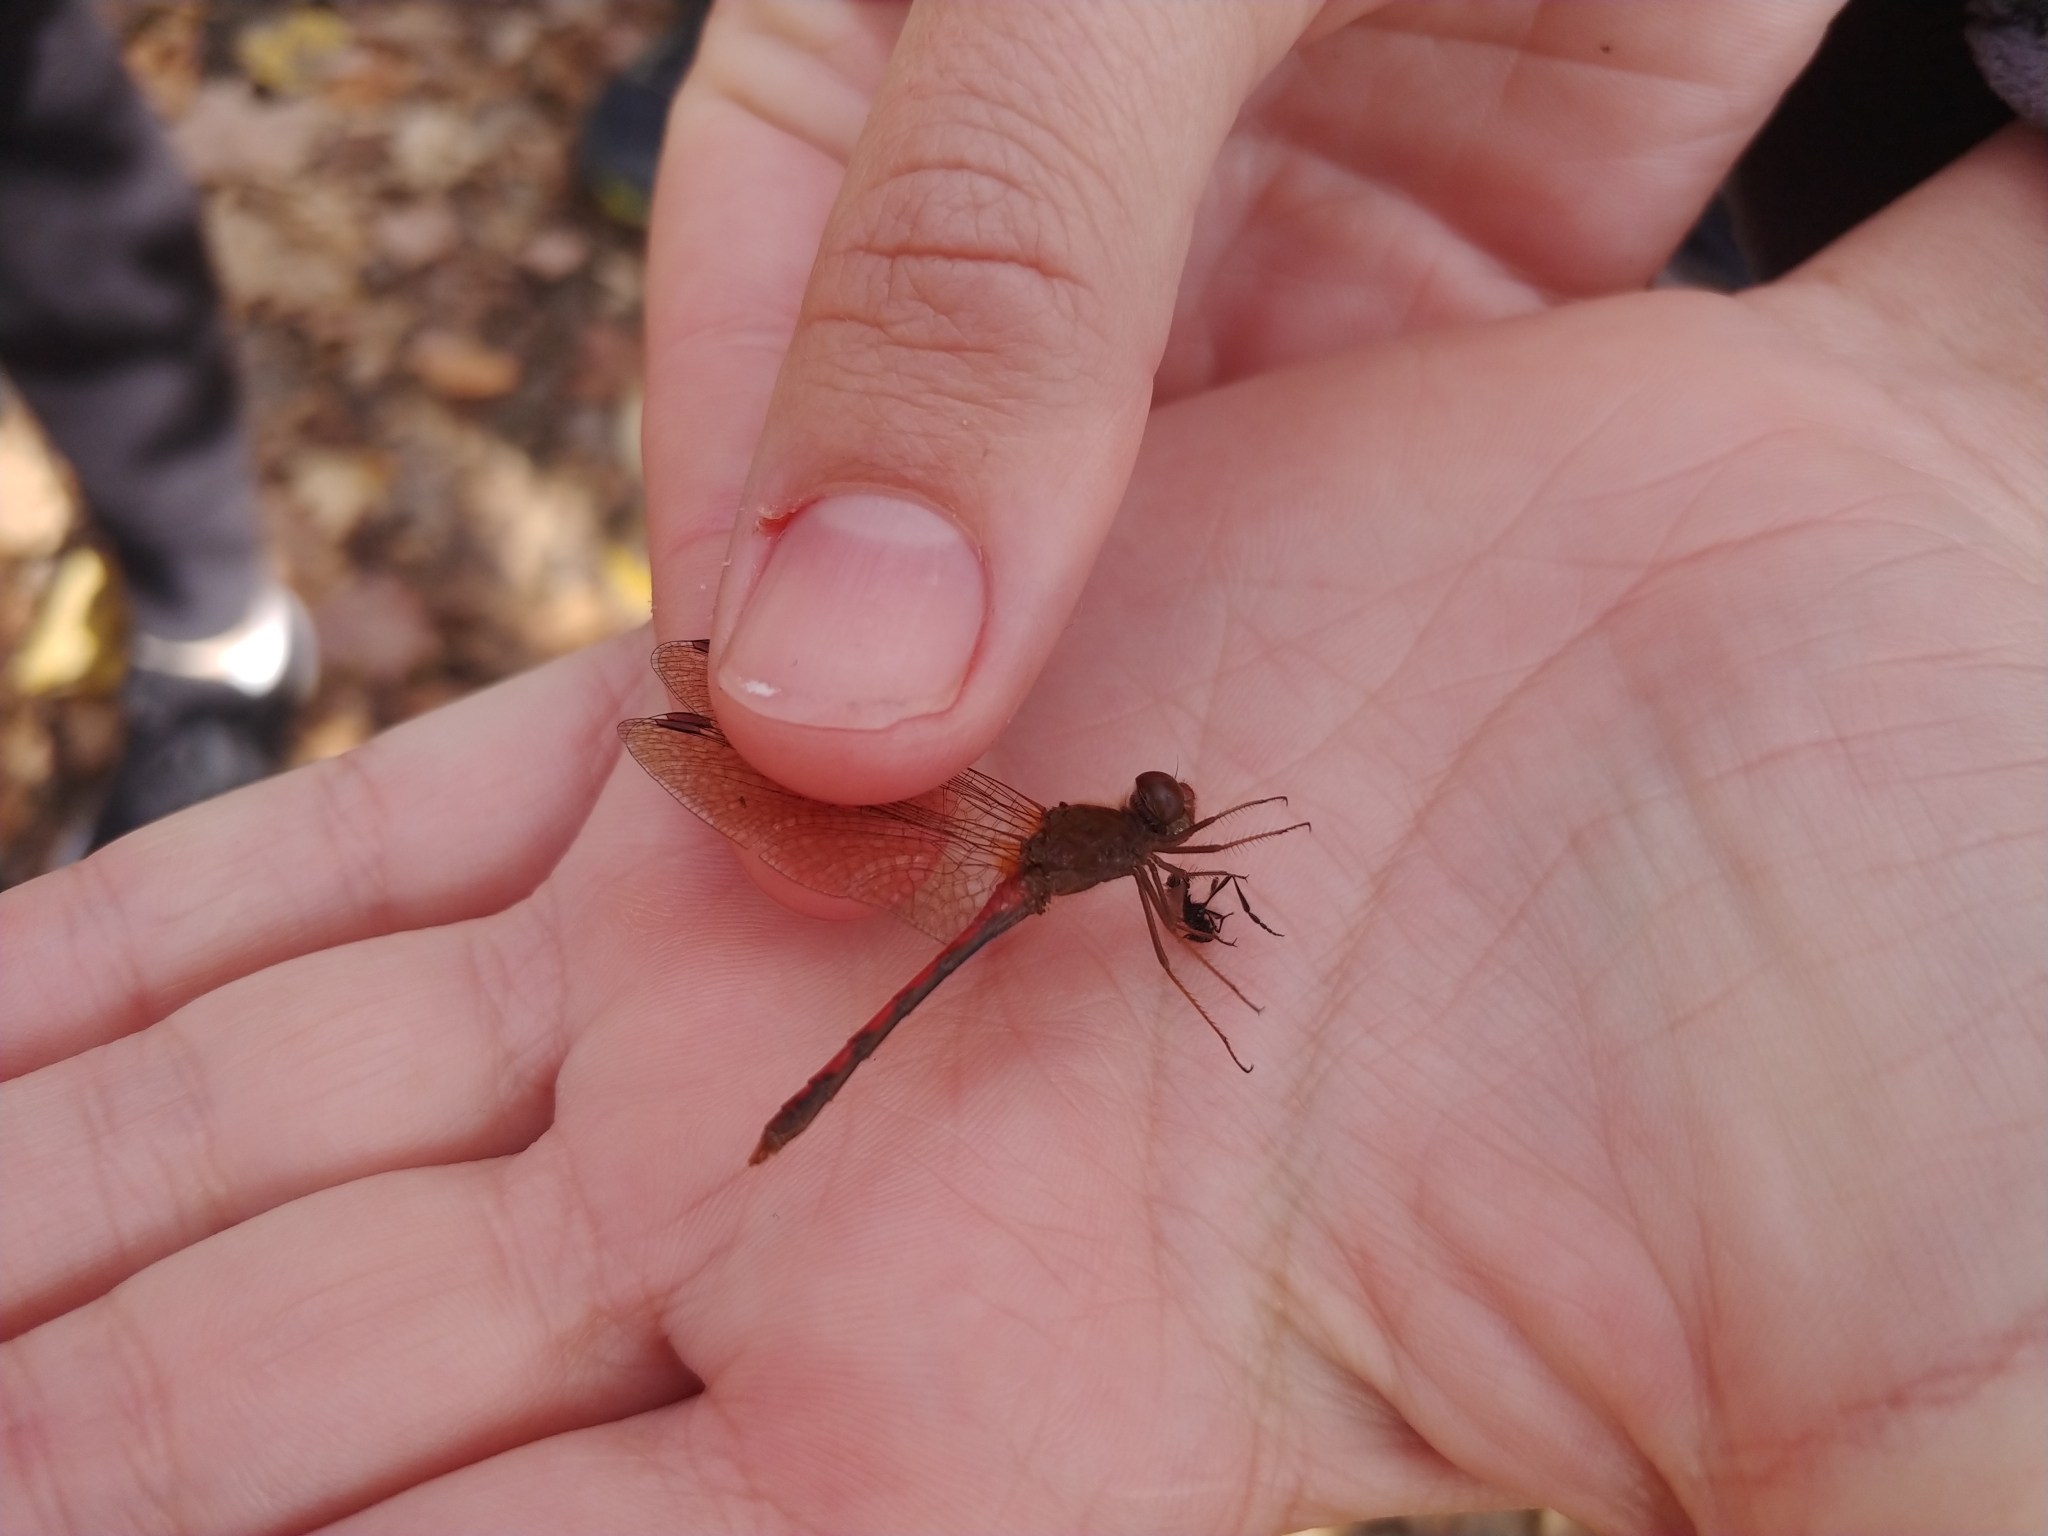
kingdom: Animalia
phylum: Arthropoda
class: Insecta
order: Odonata
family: Libellulidae
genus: Sympetrum
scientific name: Sympetrum vicinum
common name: Autumn meadowhawk
